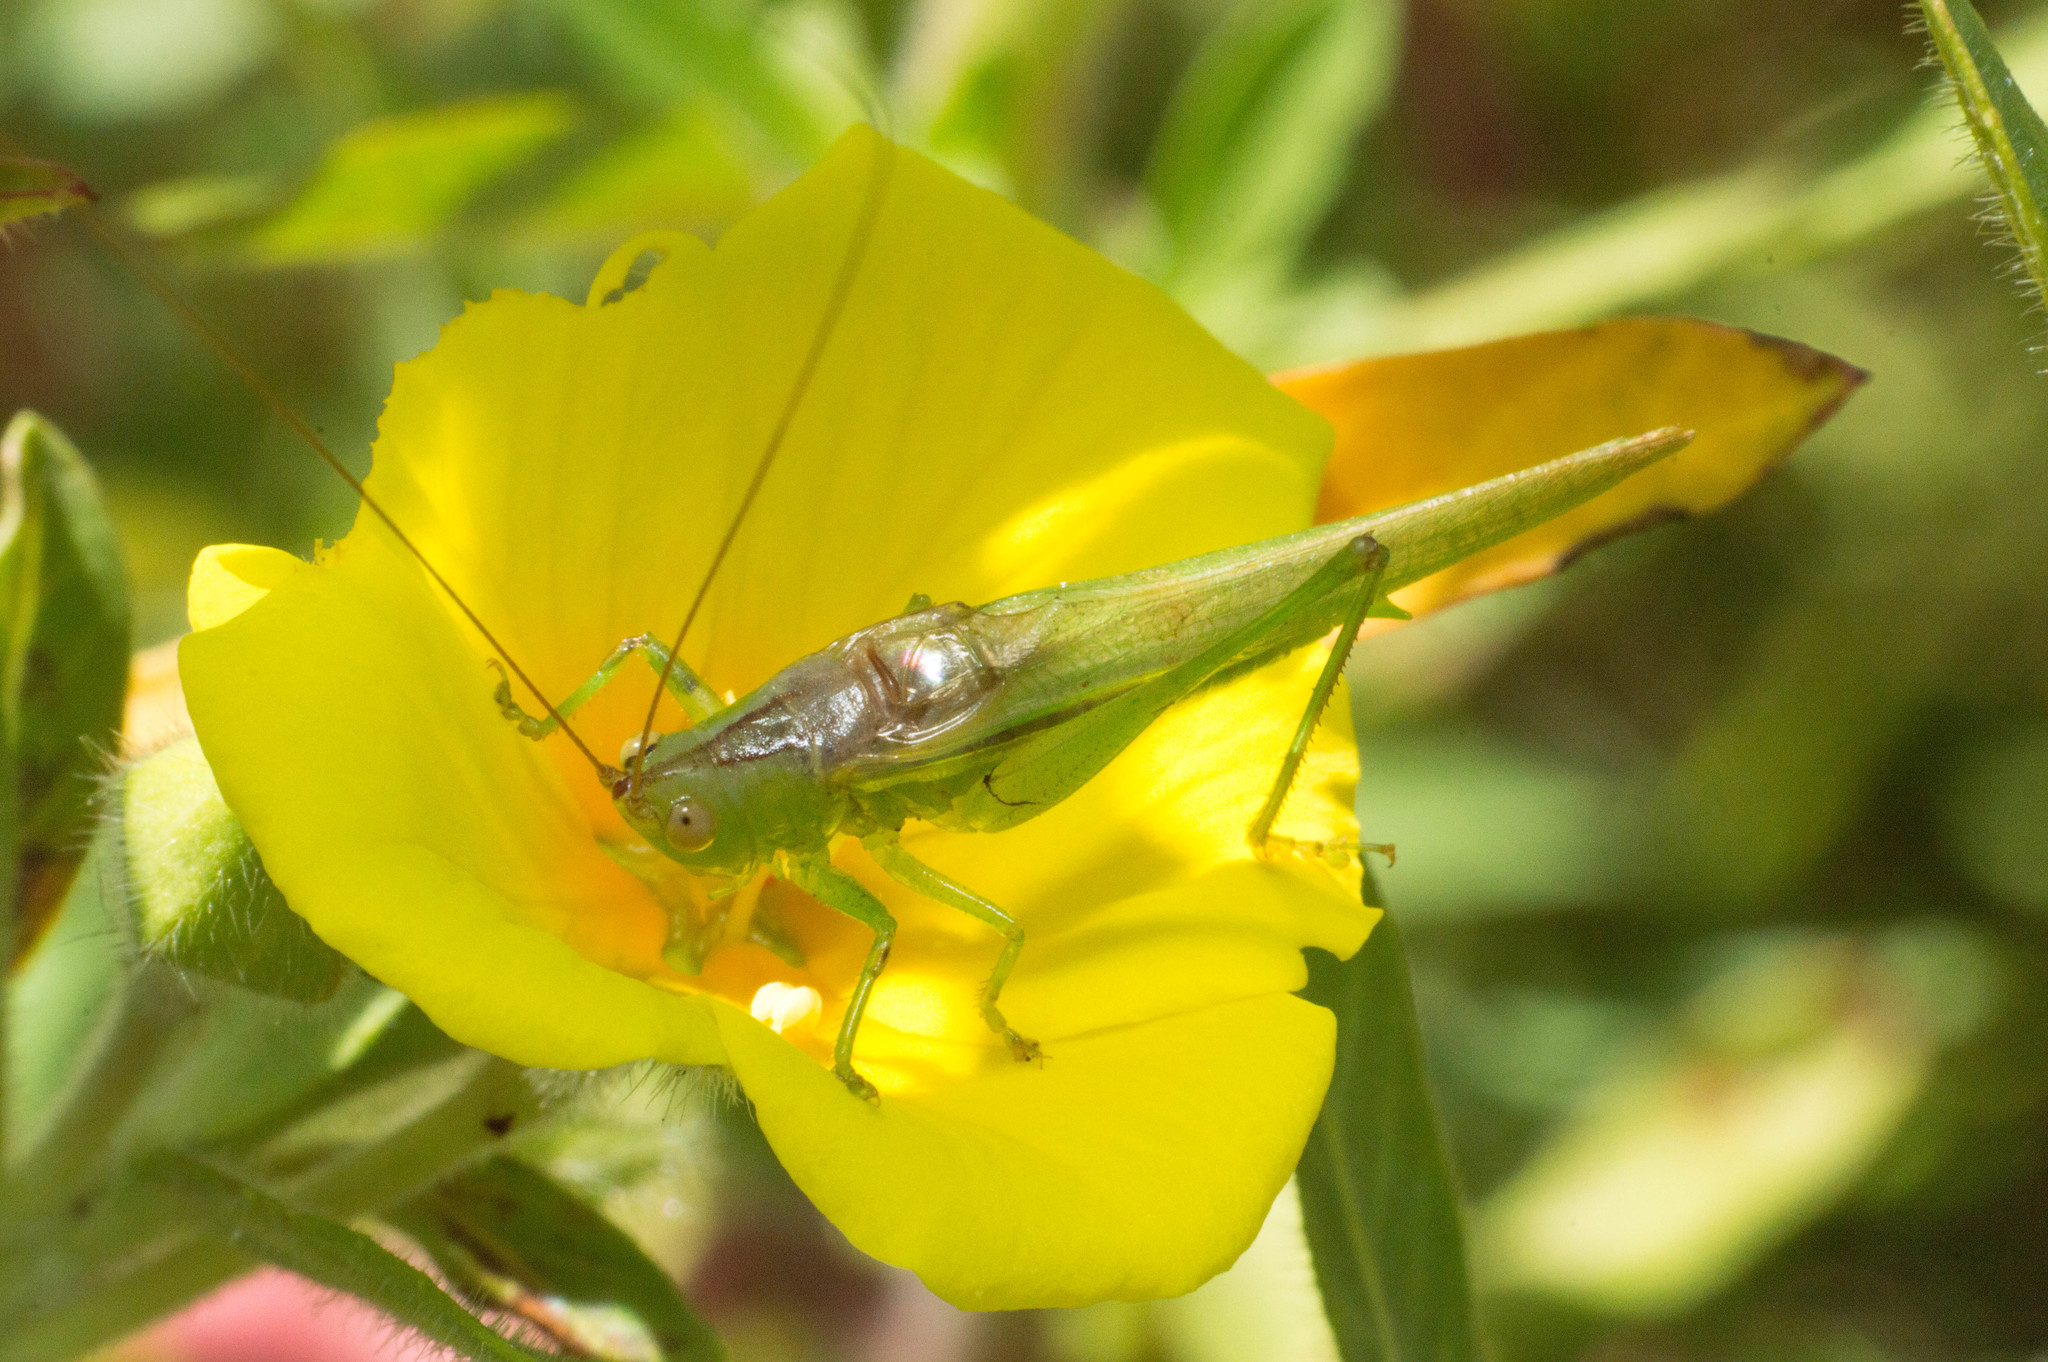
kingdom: Animalia
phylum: Arthropoda
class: Insecta
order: Orthoptera
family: Tettigoniidae
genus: Conocephalus
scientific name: Conocephalus longipes
